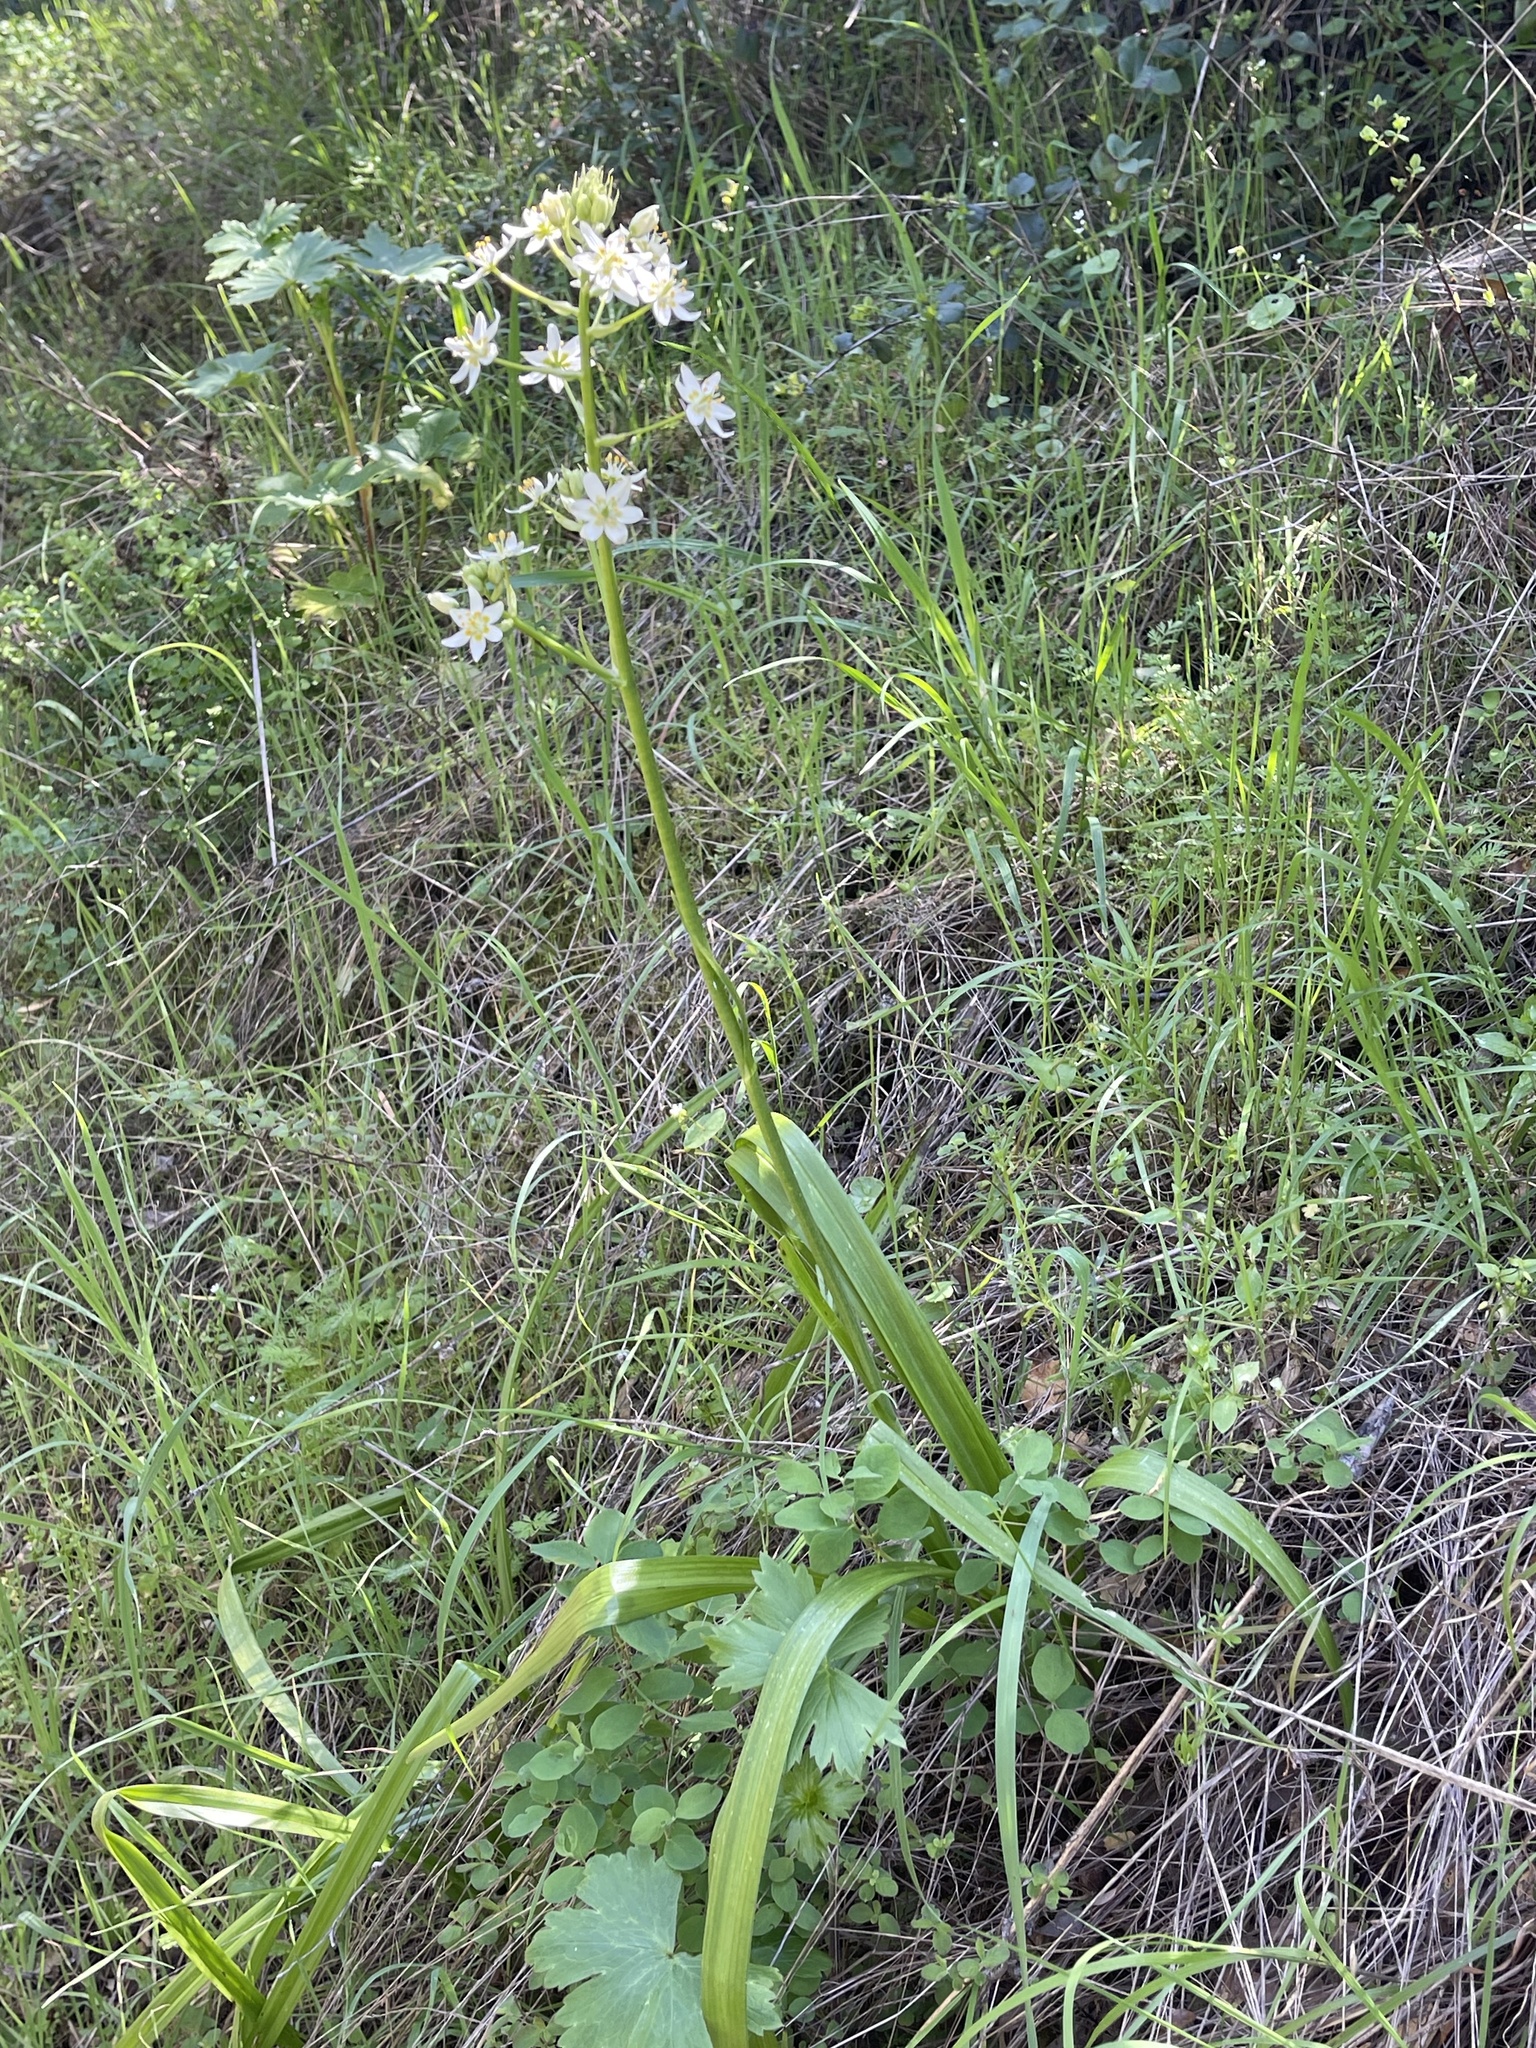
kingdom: Plantae
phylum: Tracheophyta
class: Liliopsida
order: Liliales
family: Melanthiaceae
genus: Toxicoscordion
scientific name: Toxicoscordion fremontii
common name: Fremont's death camas
